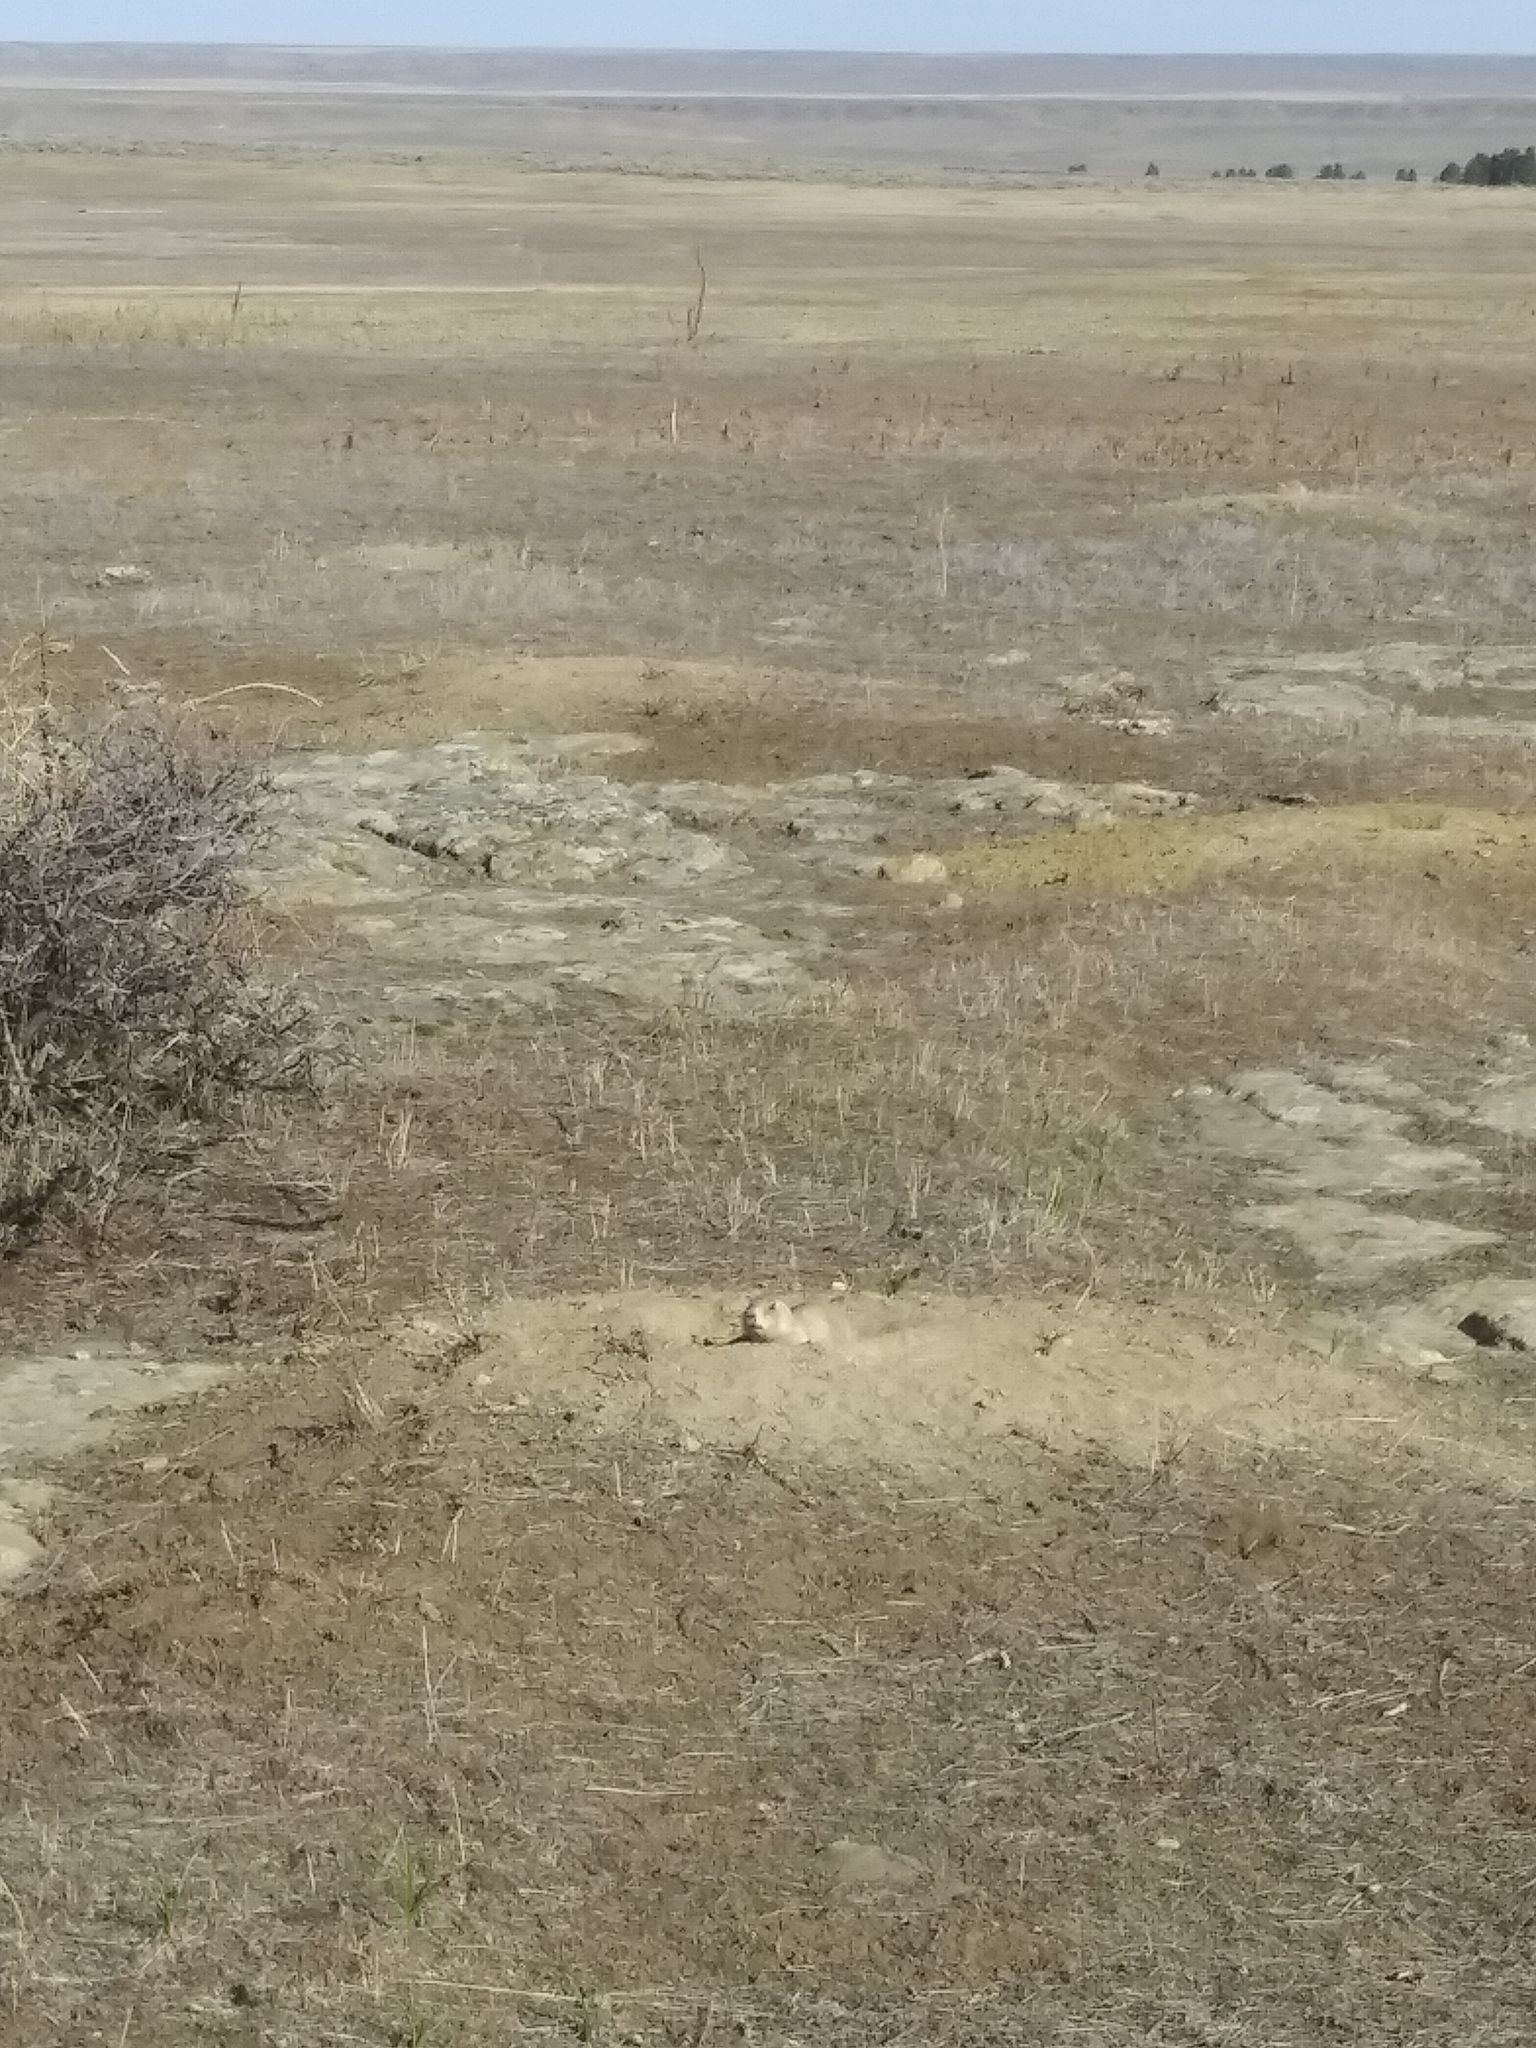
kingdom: Animalia
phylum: Chordata
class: Mammalia
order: Rodentia
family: Sciuridae
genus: Cynomys
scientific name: Cynomys ludovicianus
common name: Black-tailed prairie dog
